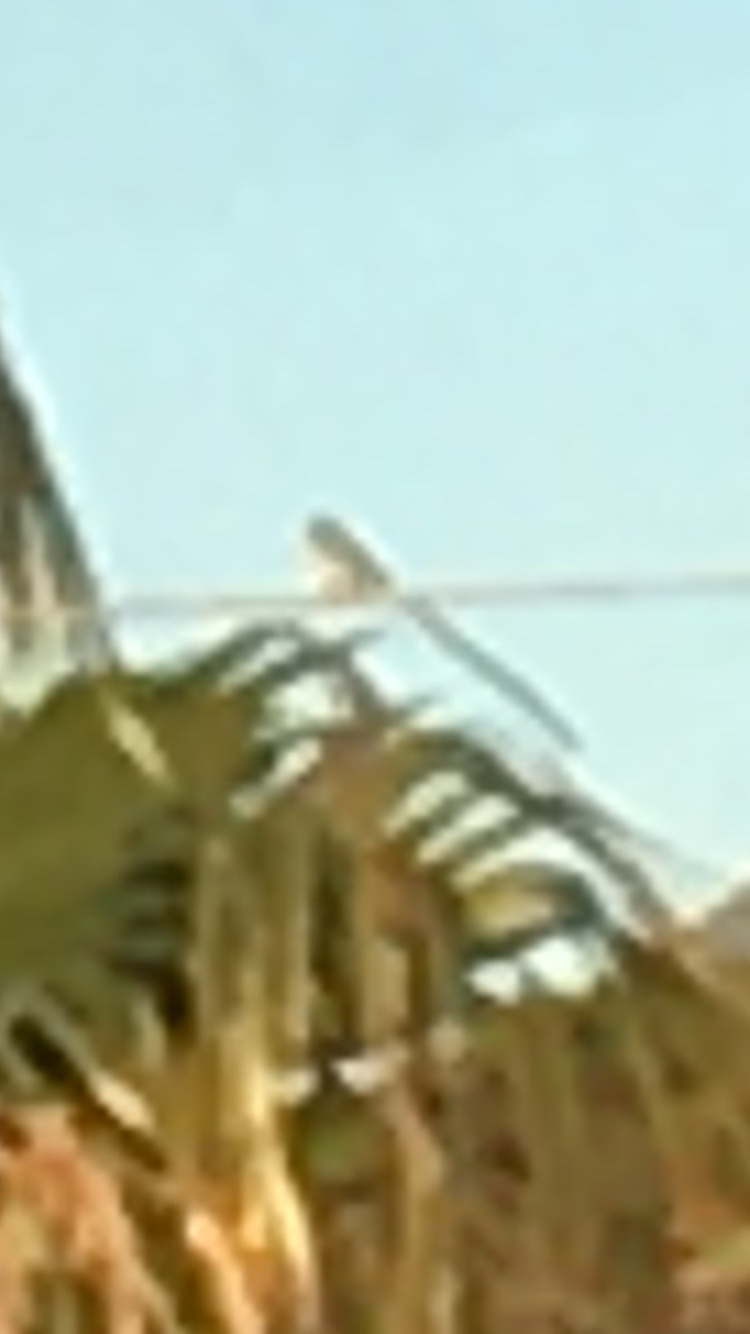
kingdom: Animalia
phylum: Chordata
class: Aves
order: Passeriformes
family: Viduidae
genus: Vidua
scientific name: Vidua macroura
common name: Pin-tailed whydah
